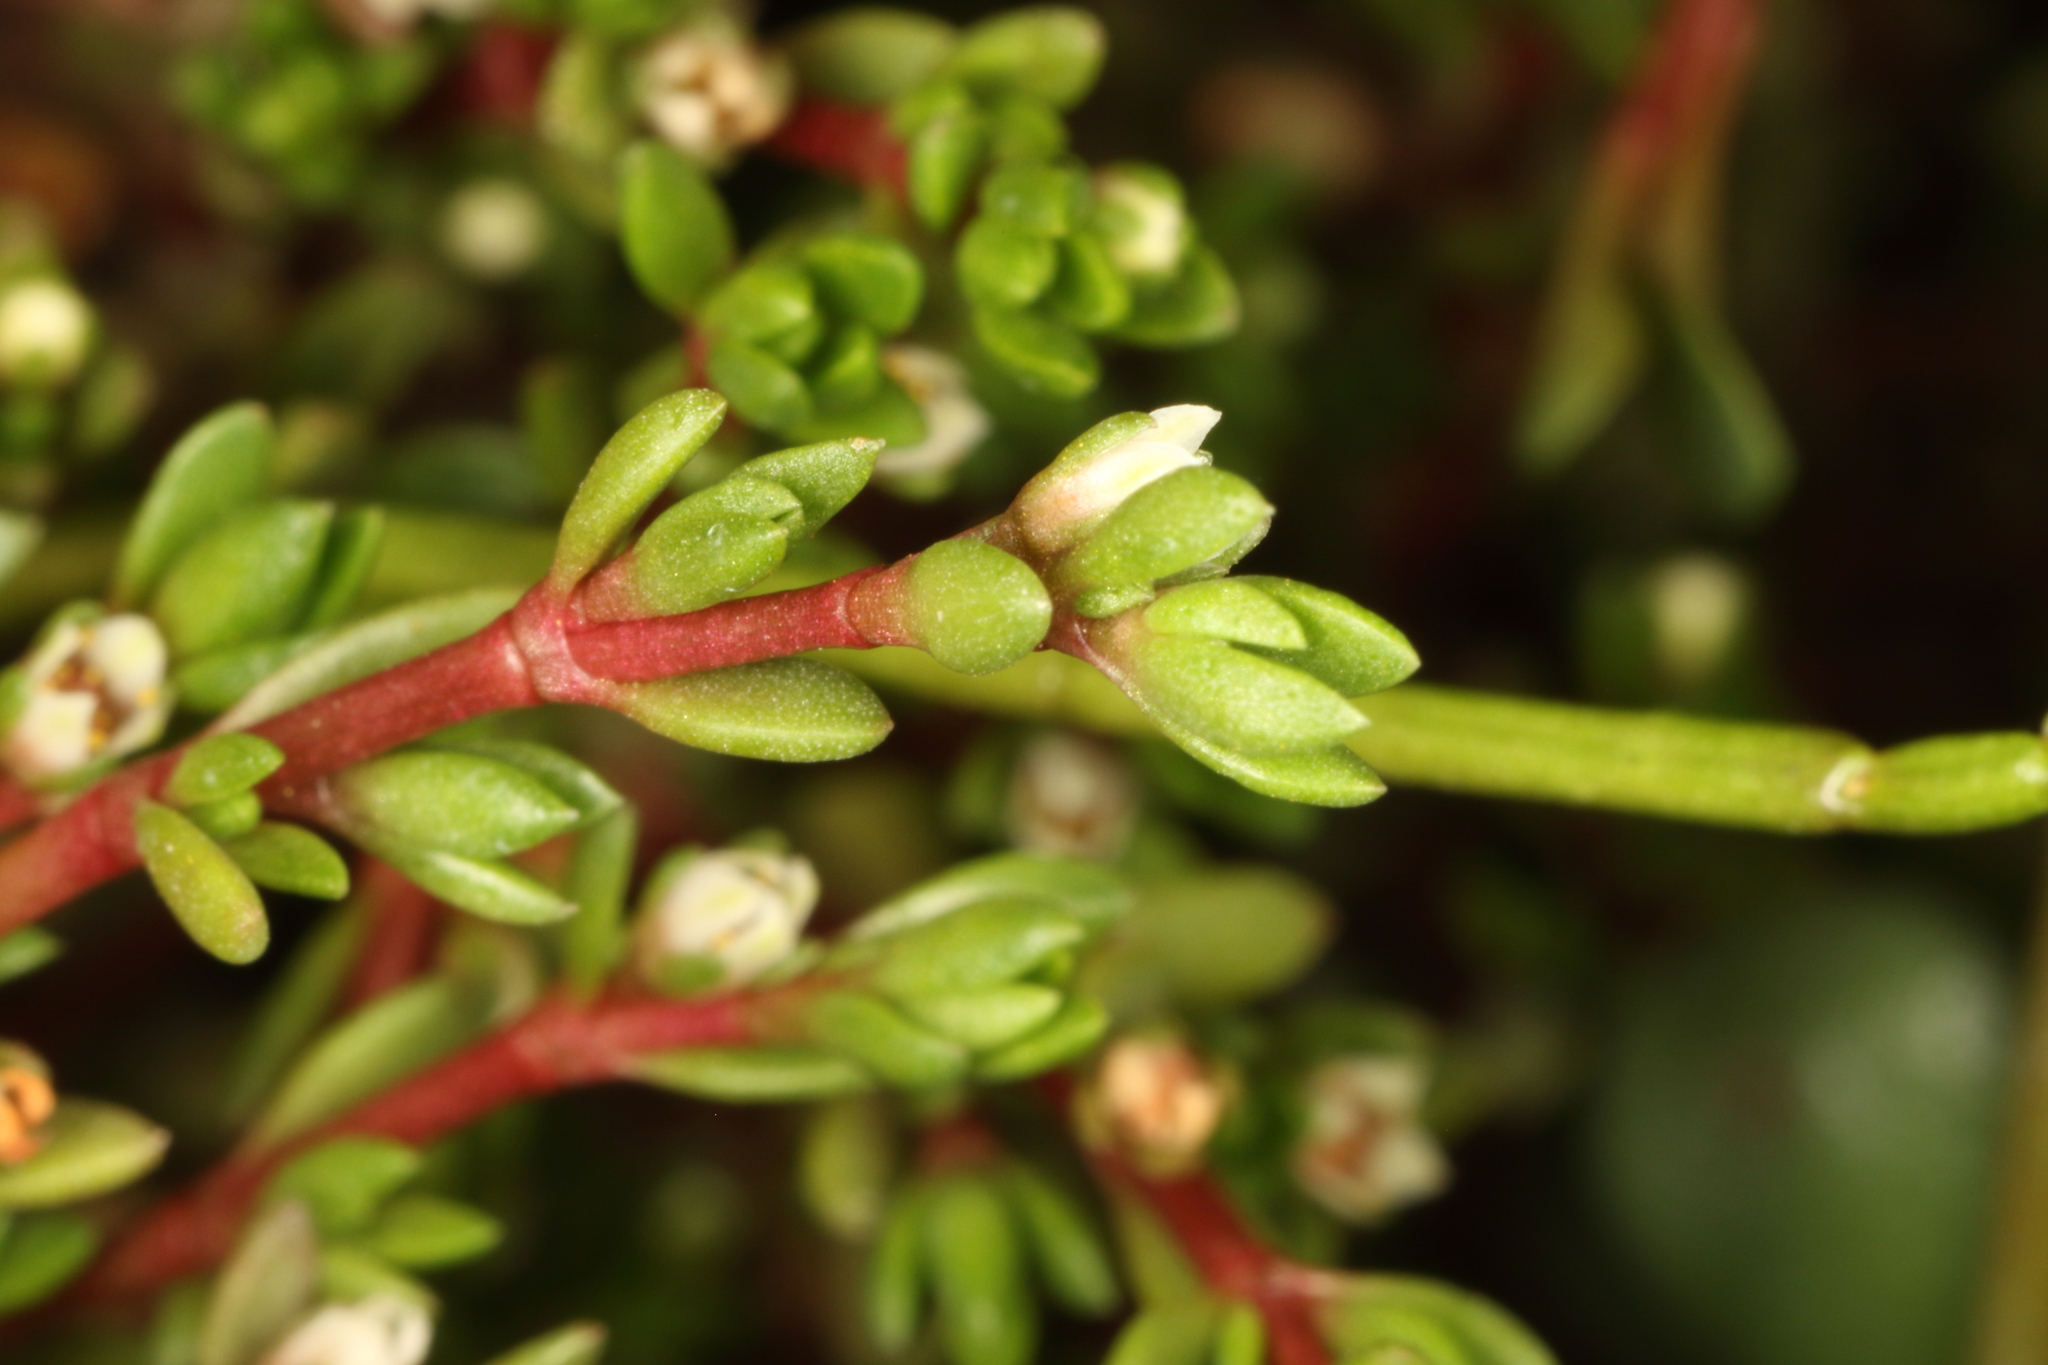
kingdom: Plantae
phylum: Tracheophyta
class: Magnoliopsida
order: Saxifragales
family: Crassulaceae
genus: Crassula
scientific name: Crassula moschata
